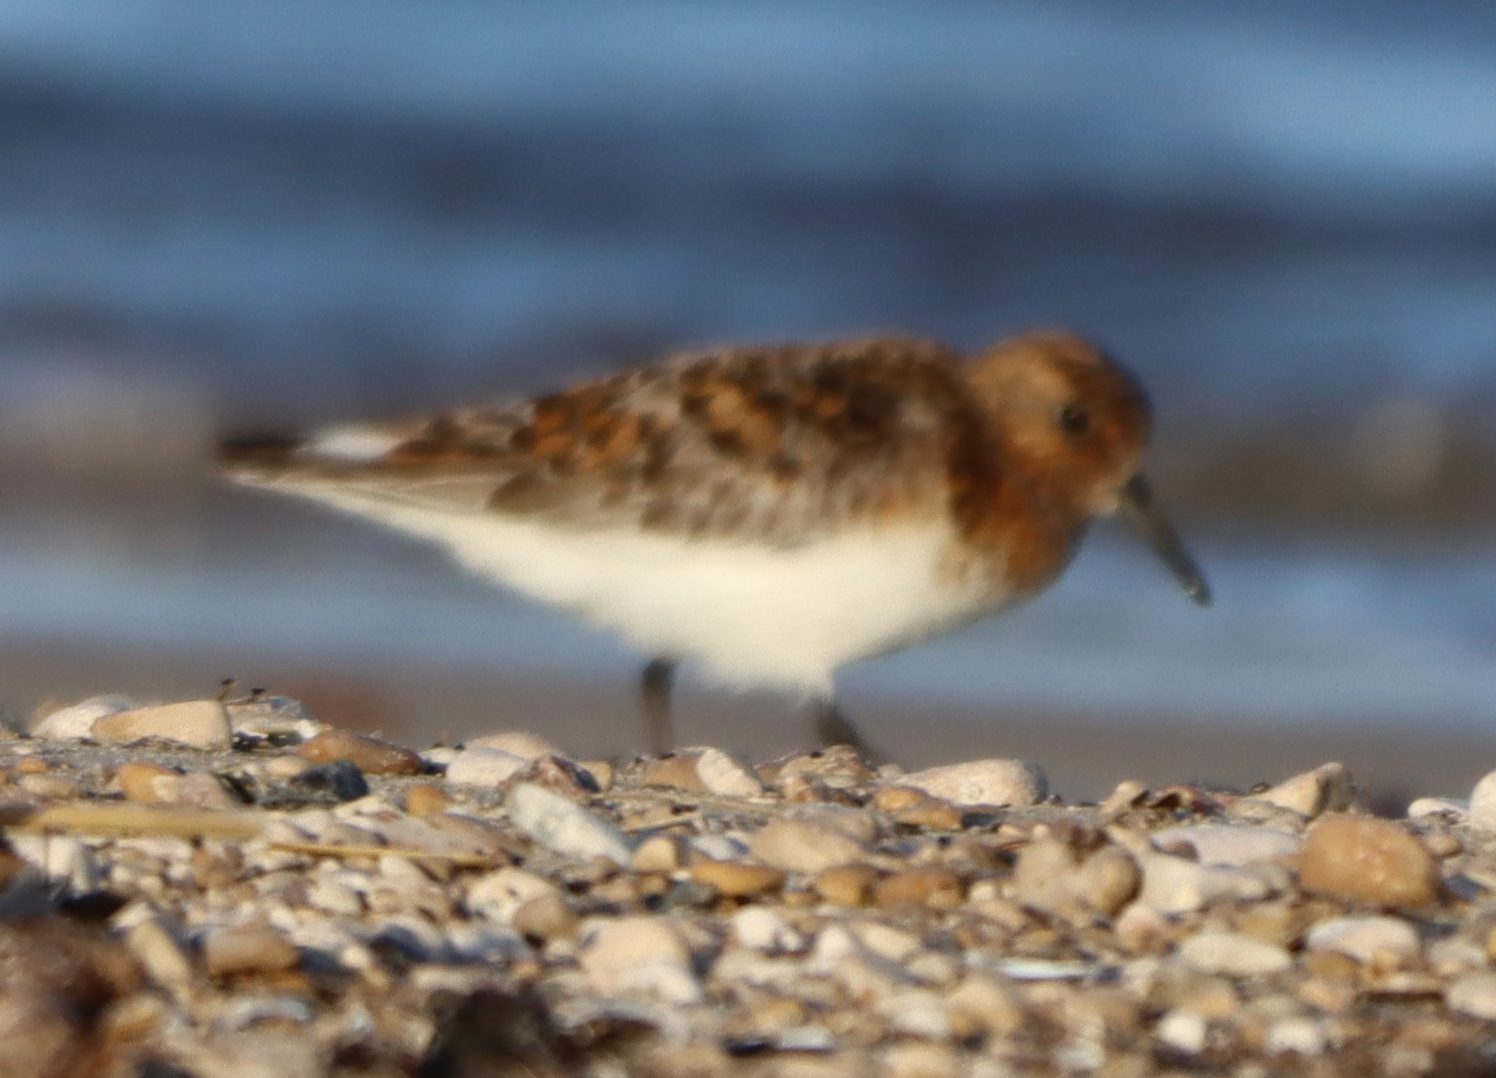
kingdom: Animalia
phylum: Chordata
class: Aves
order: Charadriiformes
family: Scolopacidae
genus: Calidris
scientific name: Calidris alba
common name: Sanderling
